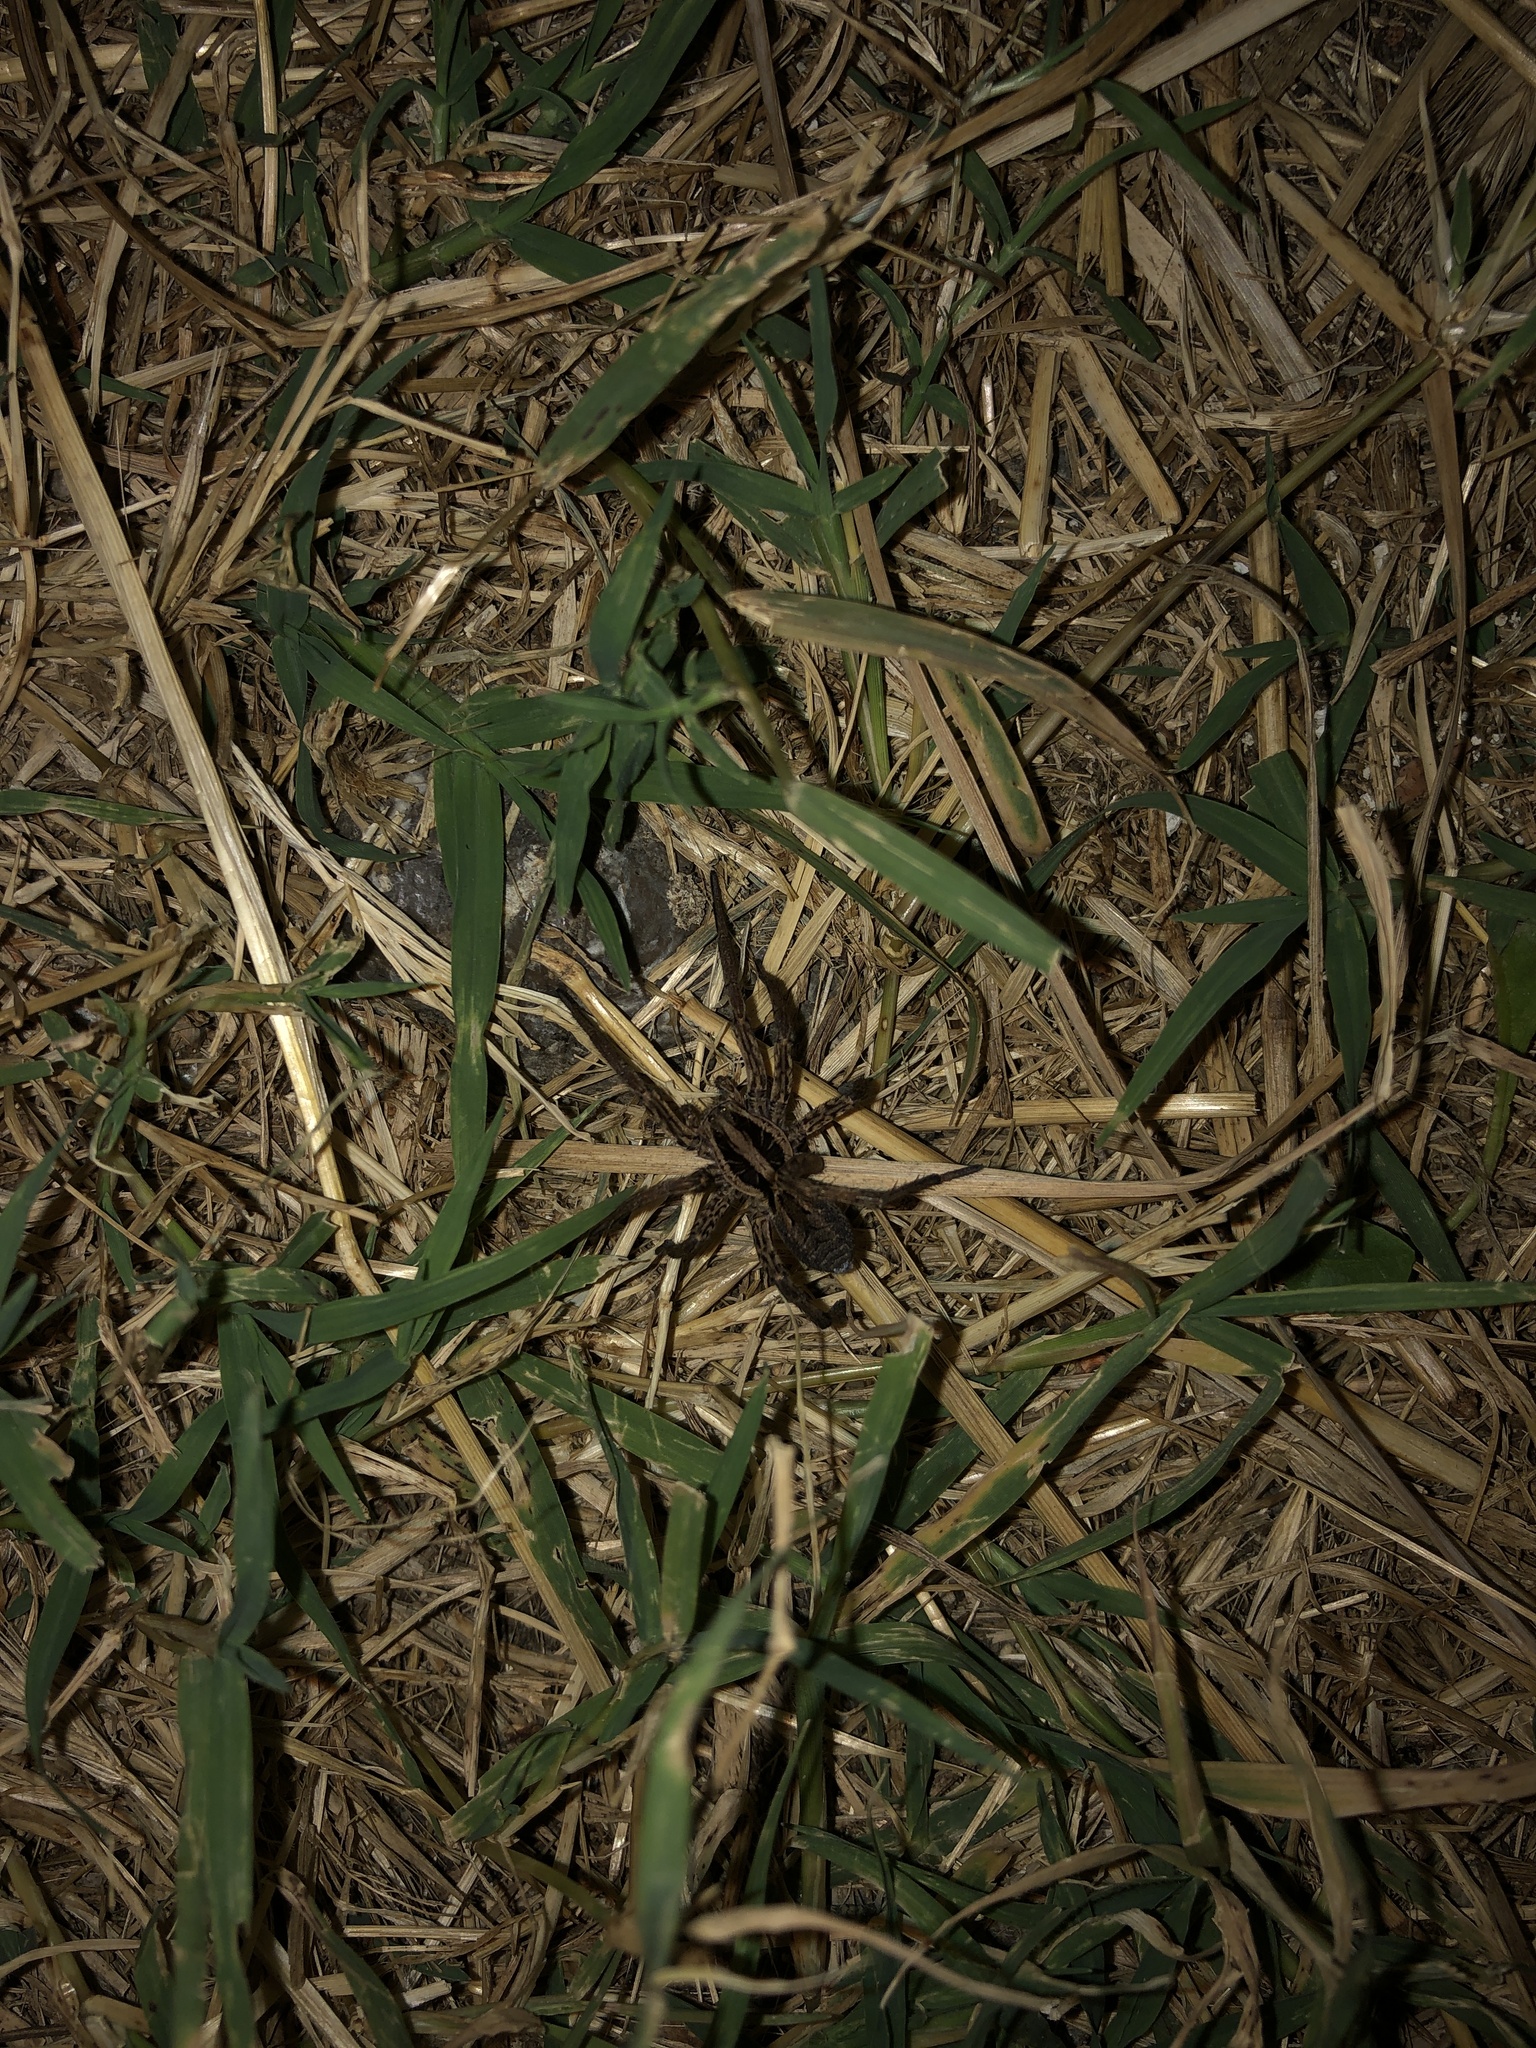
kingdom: Animalia
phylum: Arthropoda
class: Arachnida
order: Araneae
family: Lycosidae
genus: Hogna
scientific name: Hogna radiata
